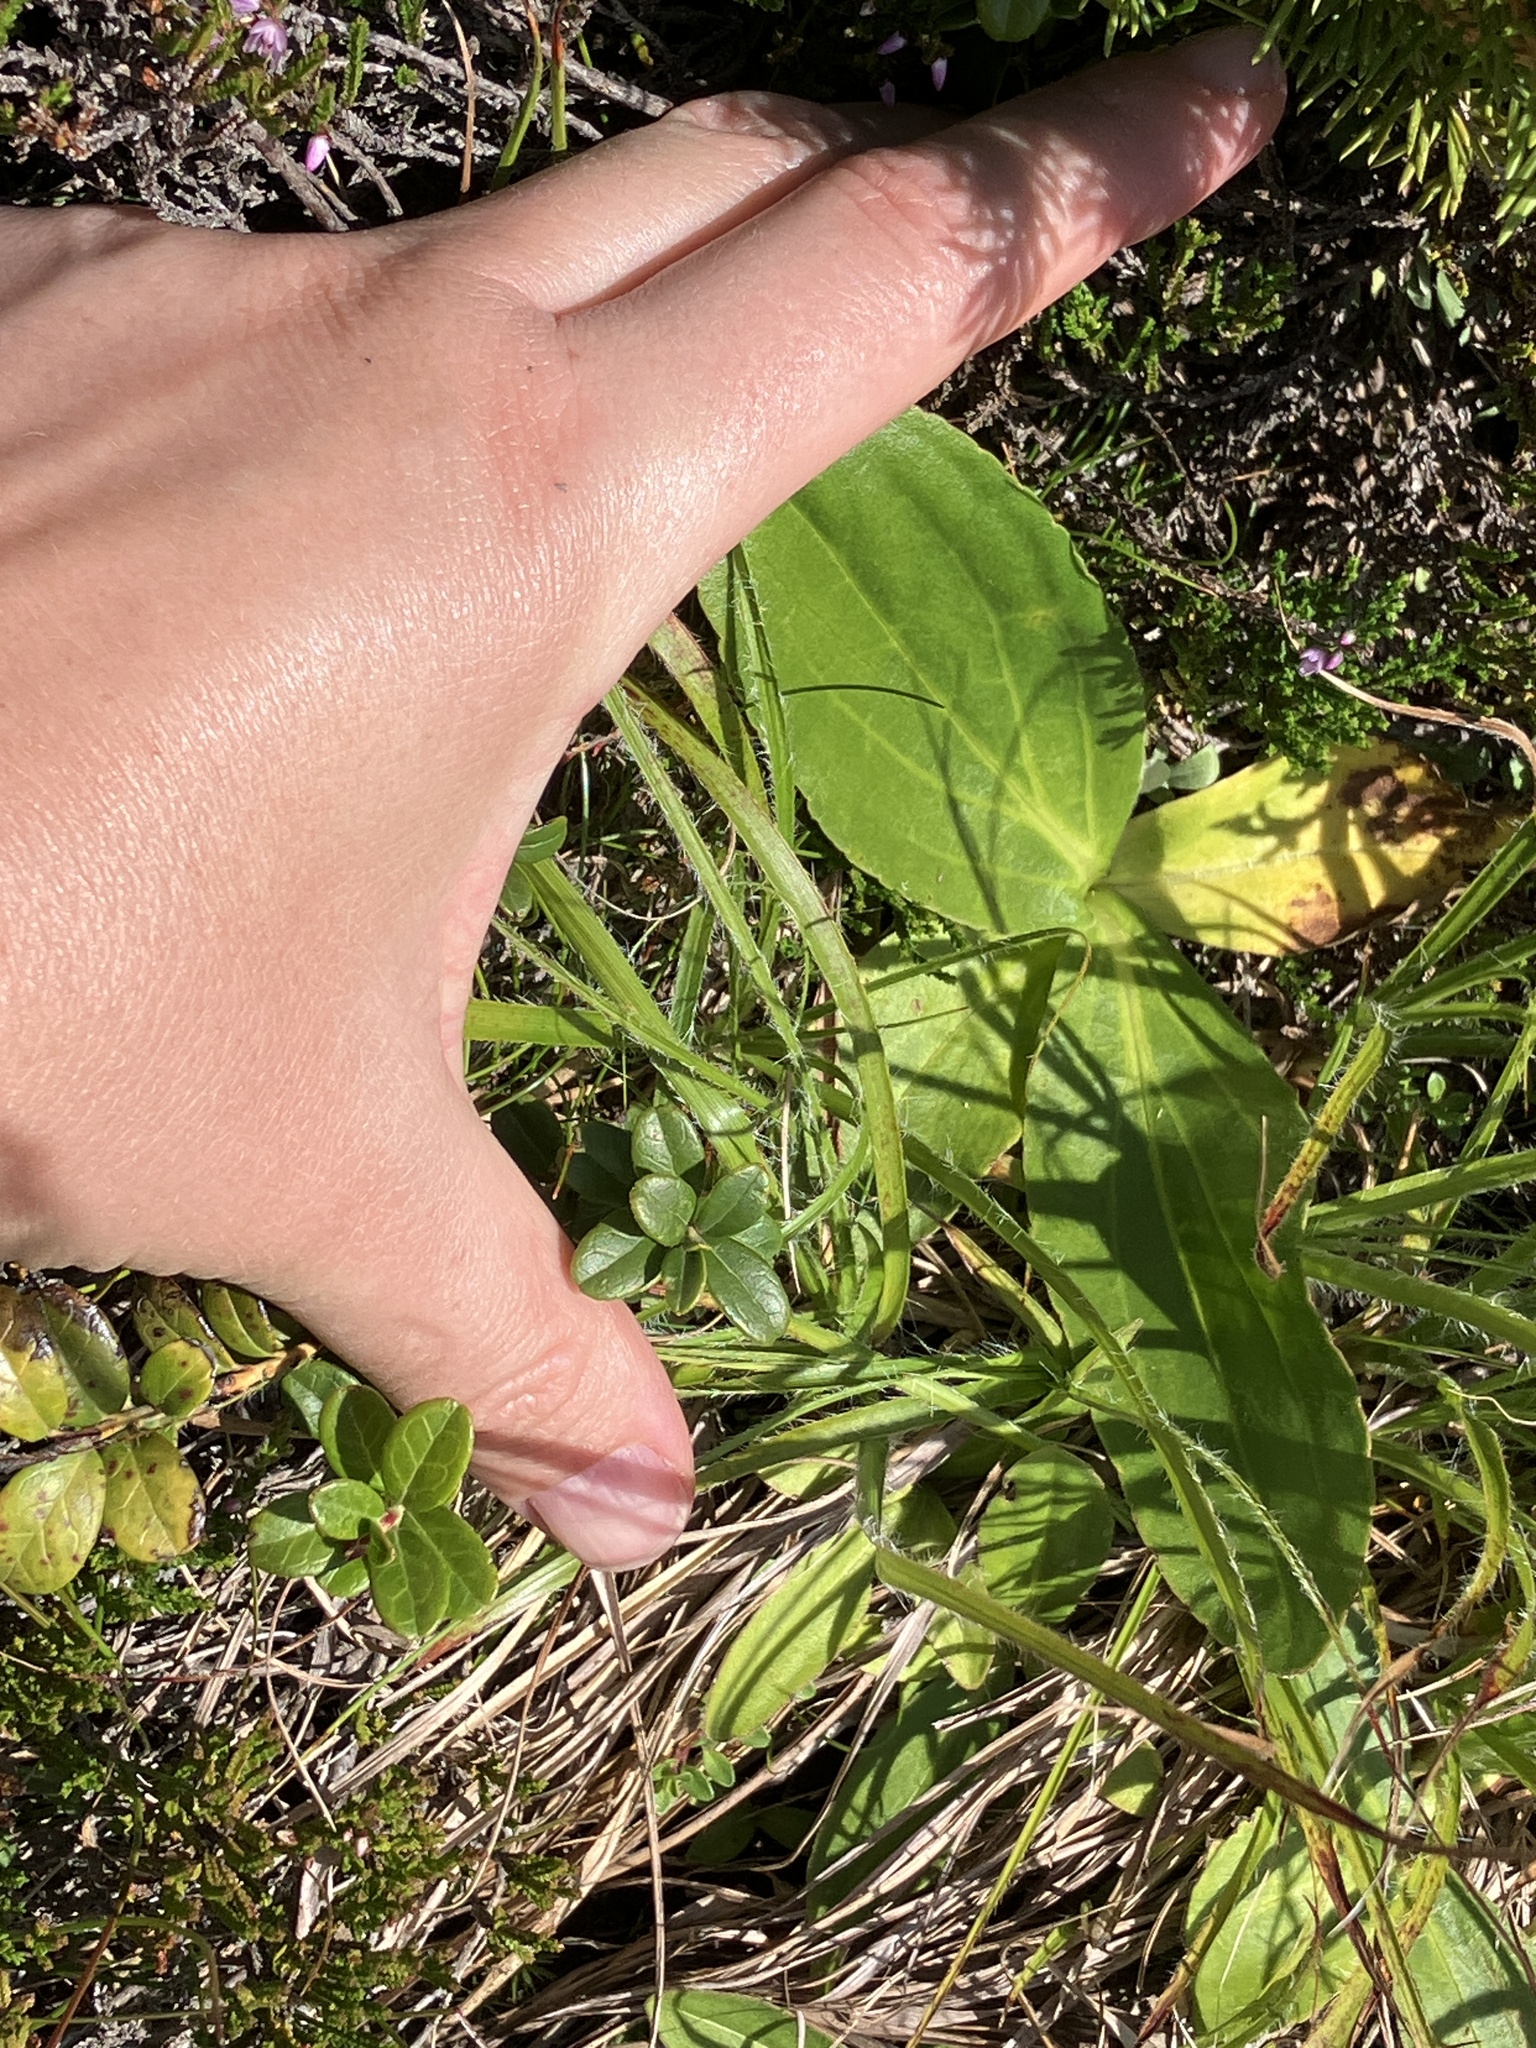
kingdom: Plantae
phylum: Tracheophyta
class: Magnoliopsida
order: Asterales
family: Asteraceae
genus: Arnica
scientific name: Arnica montana
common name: Leopard's bane
